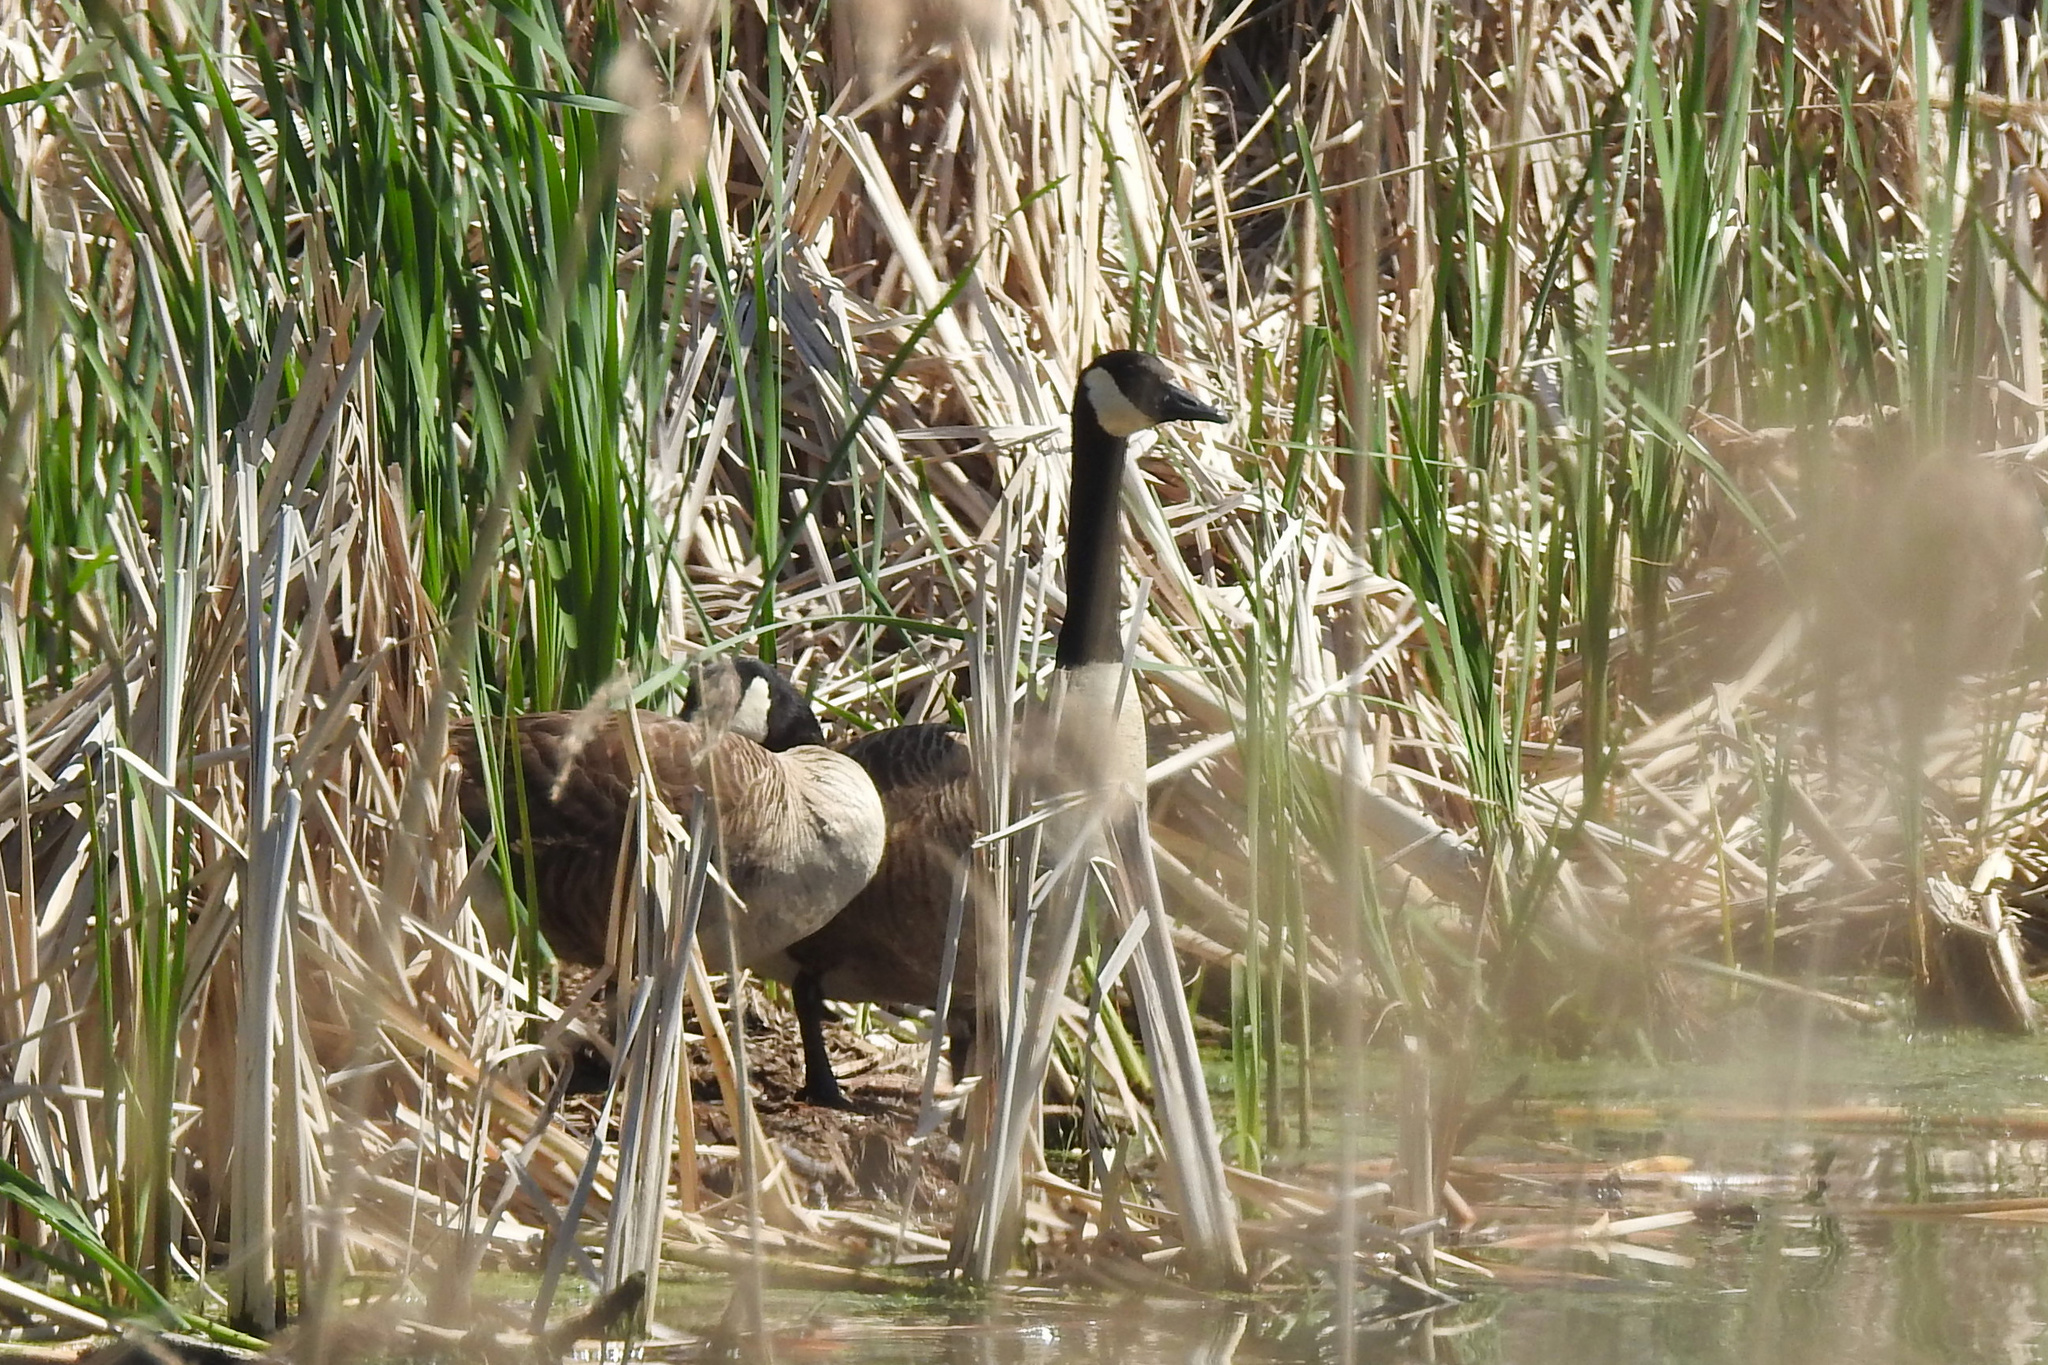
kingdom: Animalia
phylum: Chordata
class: Aves
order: Anseriformes
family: Anatidae
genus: Branta
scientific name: Branta canadensis
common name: Canada goose
